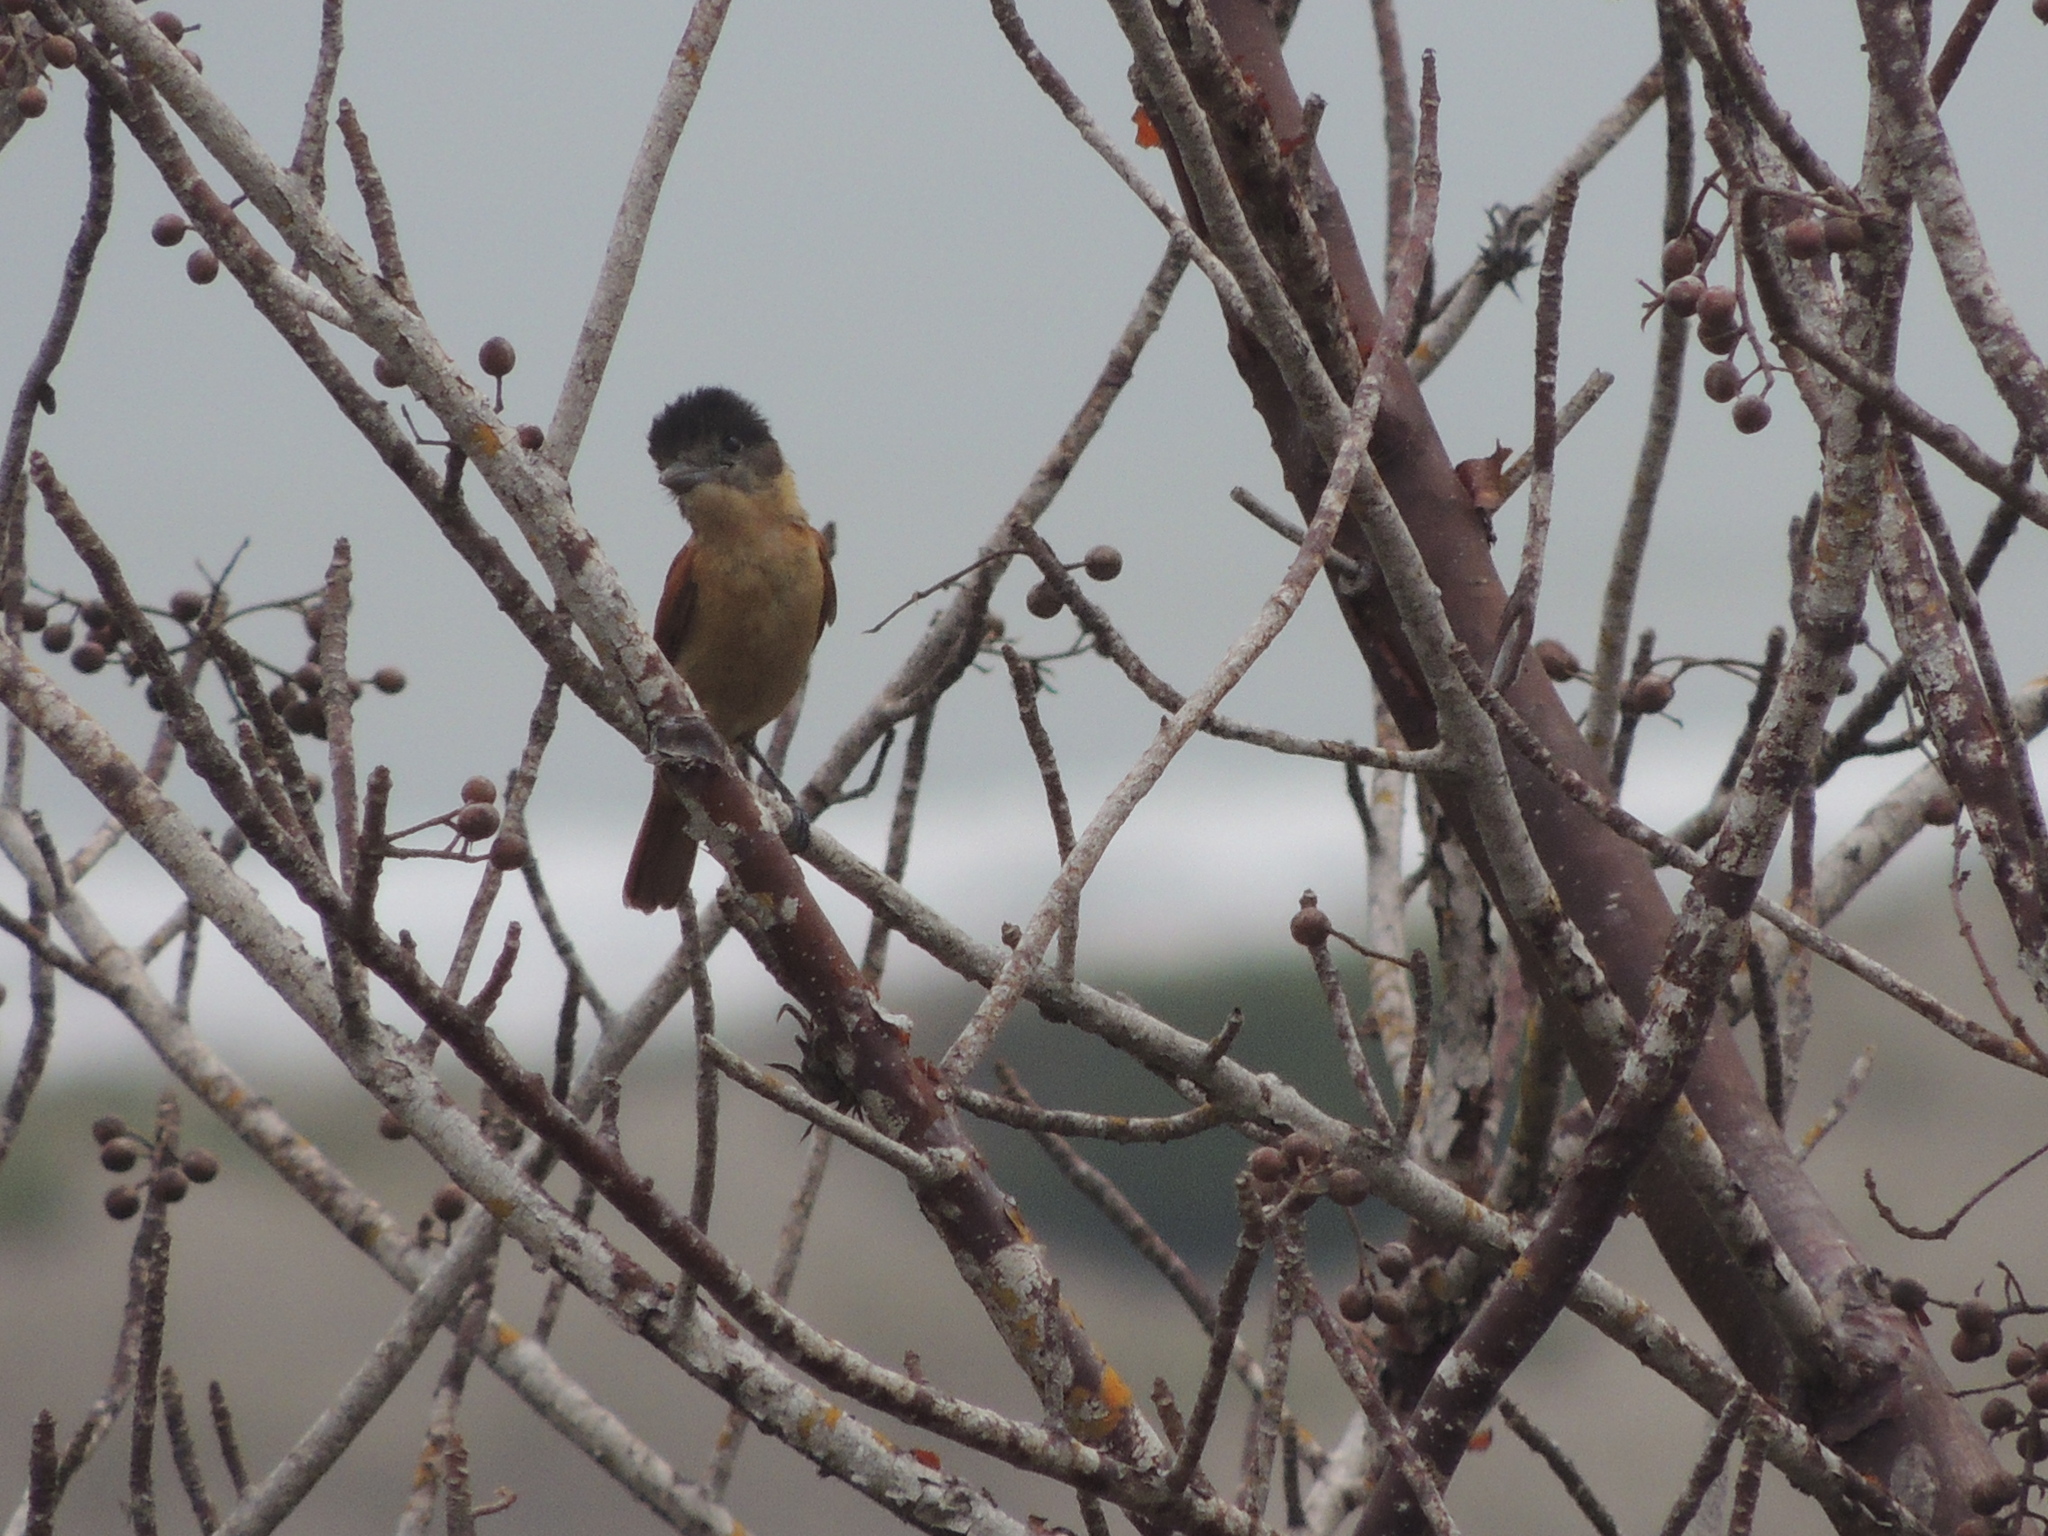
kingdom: Animalia
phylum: Chordata
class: Aves
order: Passeriformes
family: Cotingidae
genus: Pachyramphus
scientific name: Pachyramphus aglaiae
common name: Rose-throated becard
